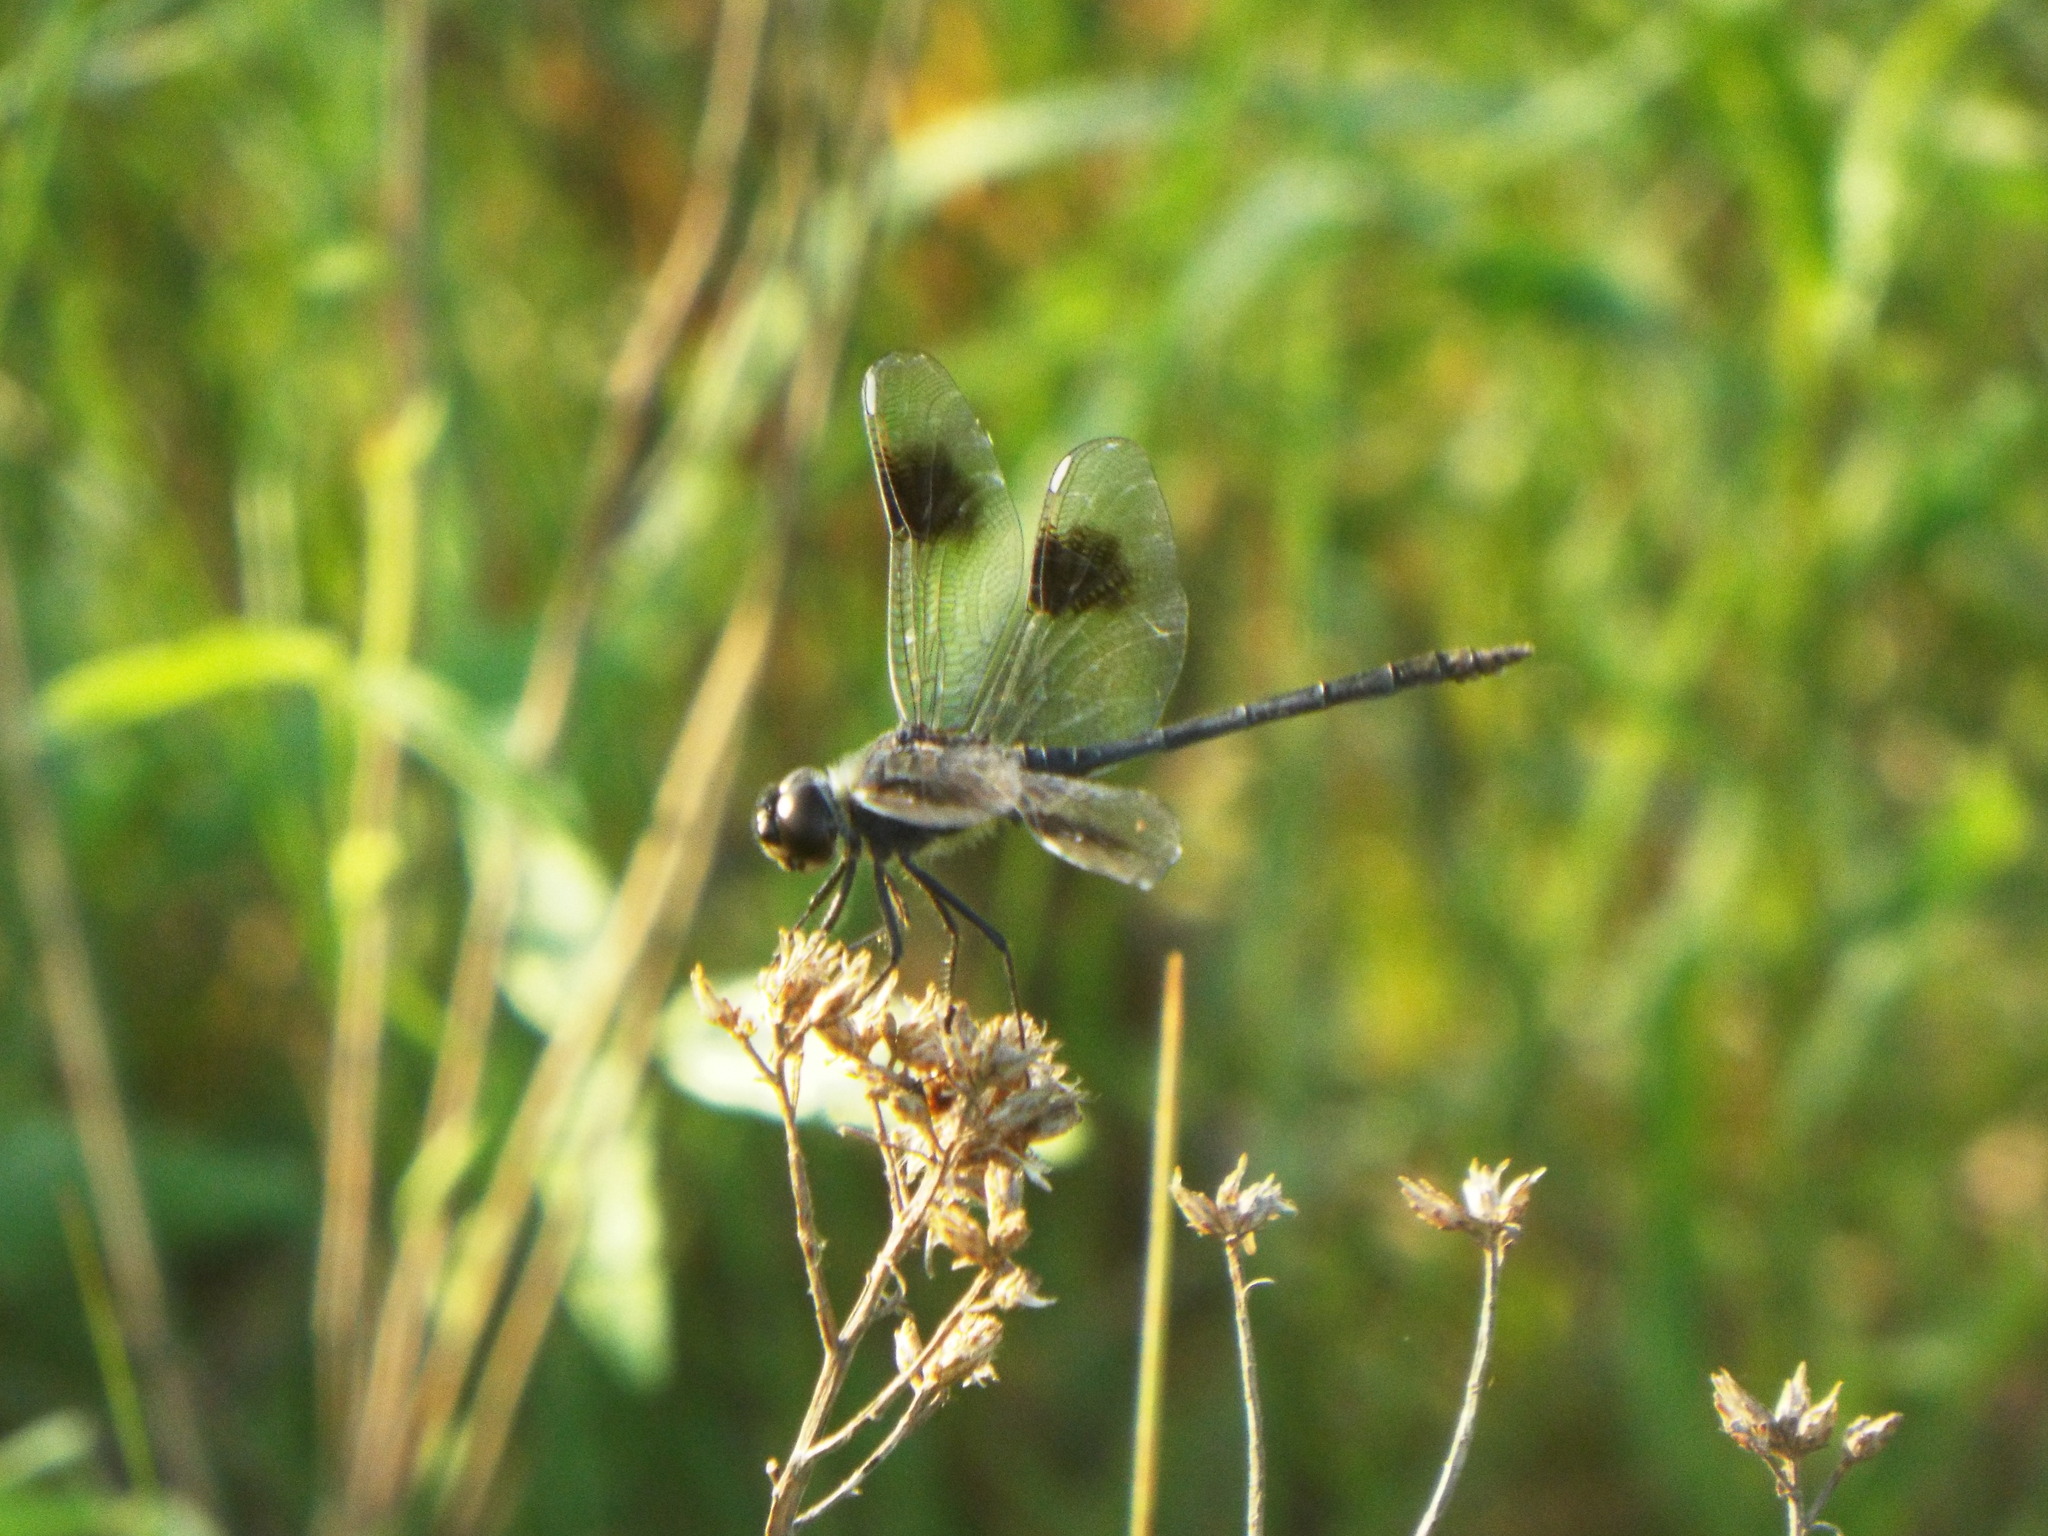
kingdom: Animalia
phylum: Arthropoda
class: Insecta
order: Odonata
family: Libellulidae
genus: Brachymesia
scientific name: Brachymesia gravida
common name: Four-spotted pennant
